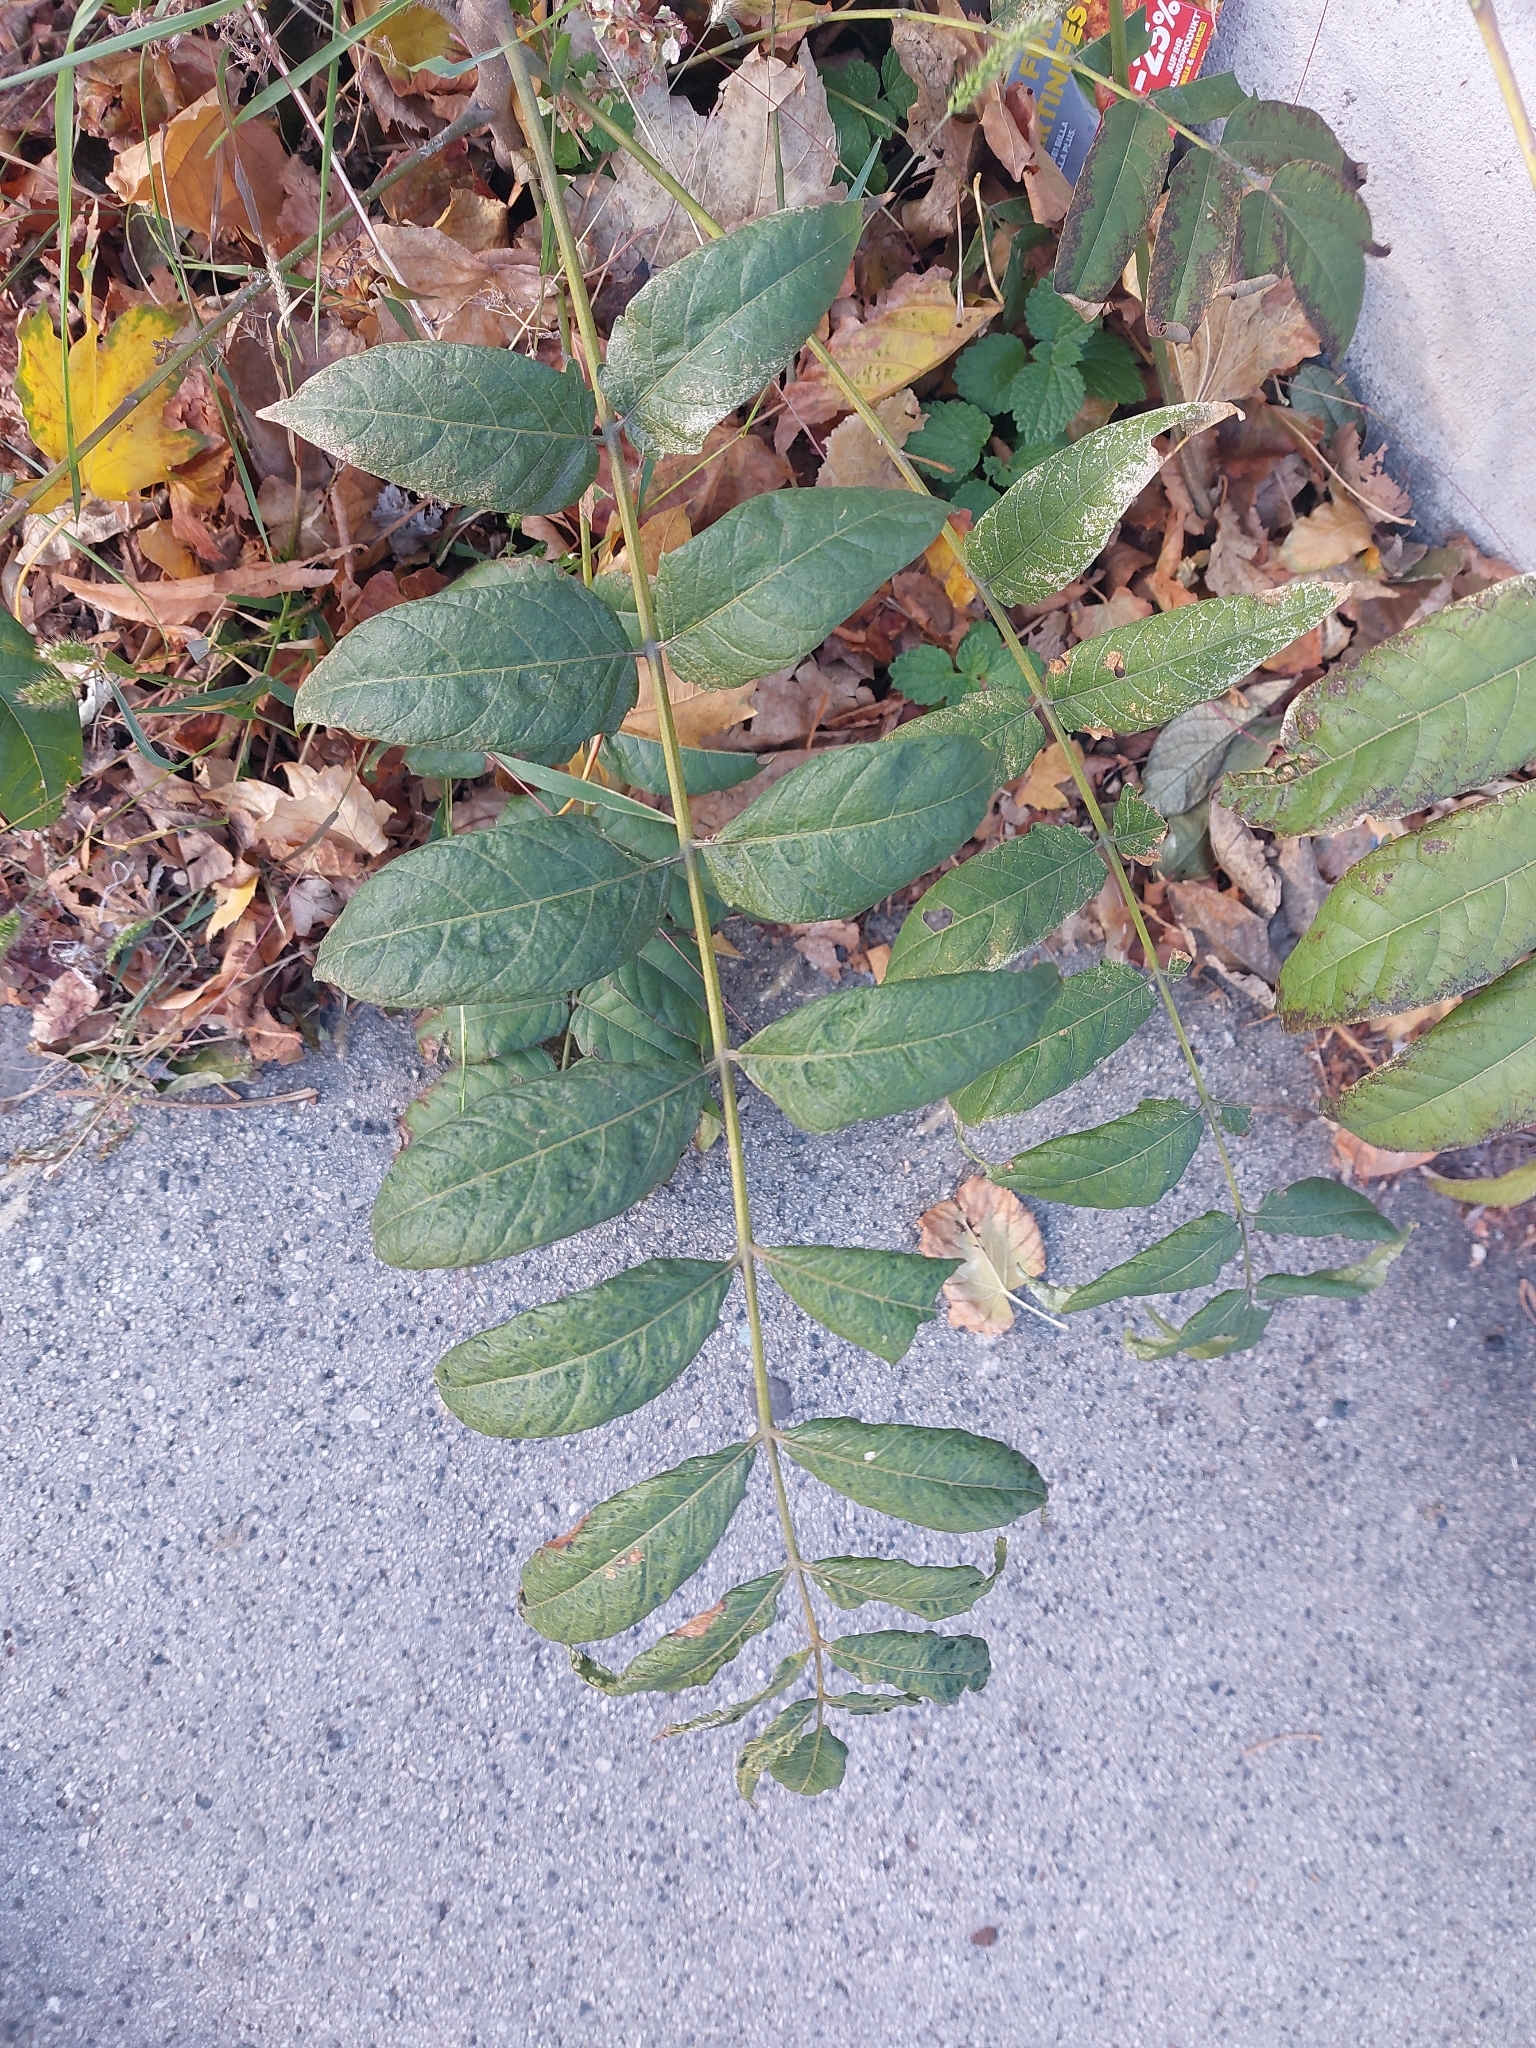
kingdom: Plantae
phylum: Tracheophyta
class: Magnoliopsida
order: Sapindales
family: Simaroubaceae
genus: Ailanthus
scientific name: Ailanthus altissima
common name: Tree-of-heaven
